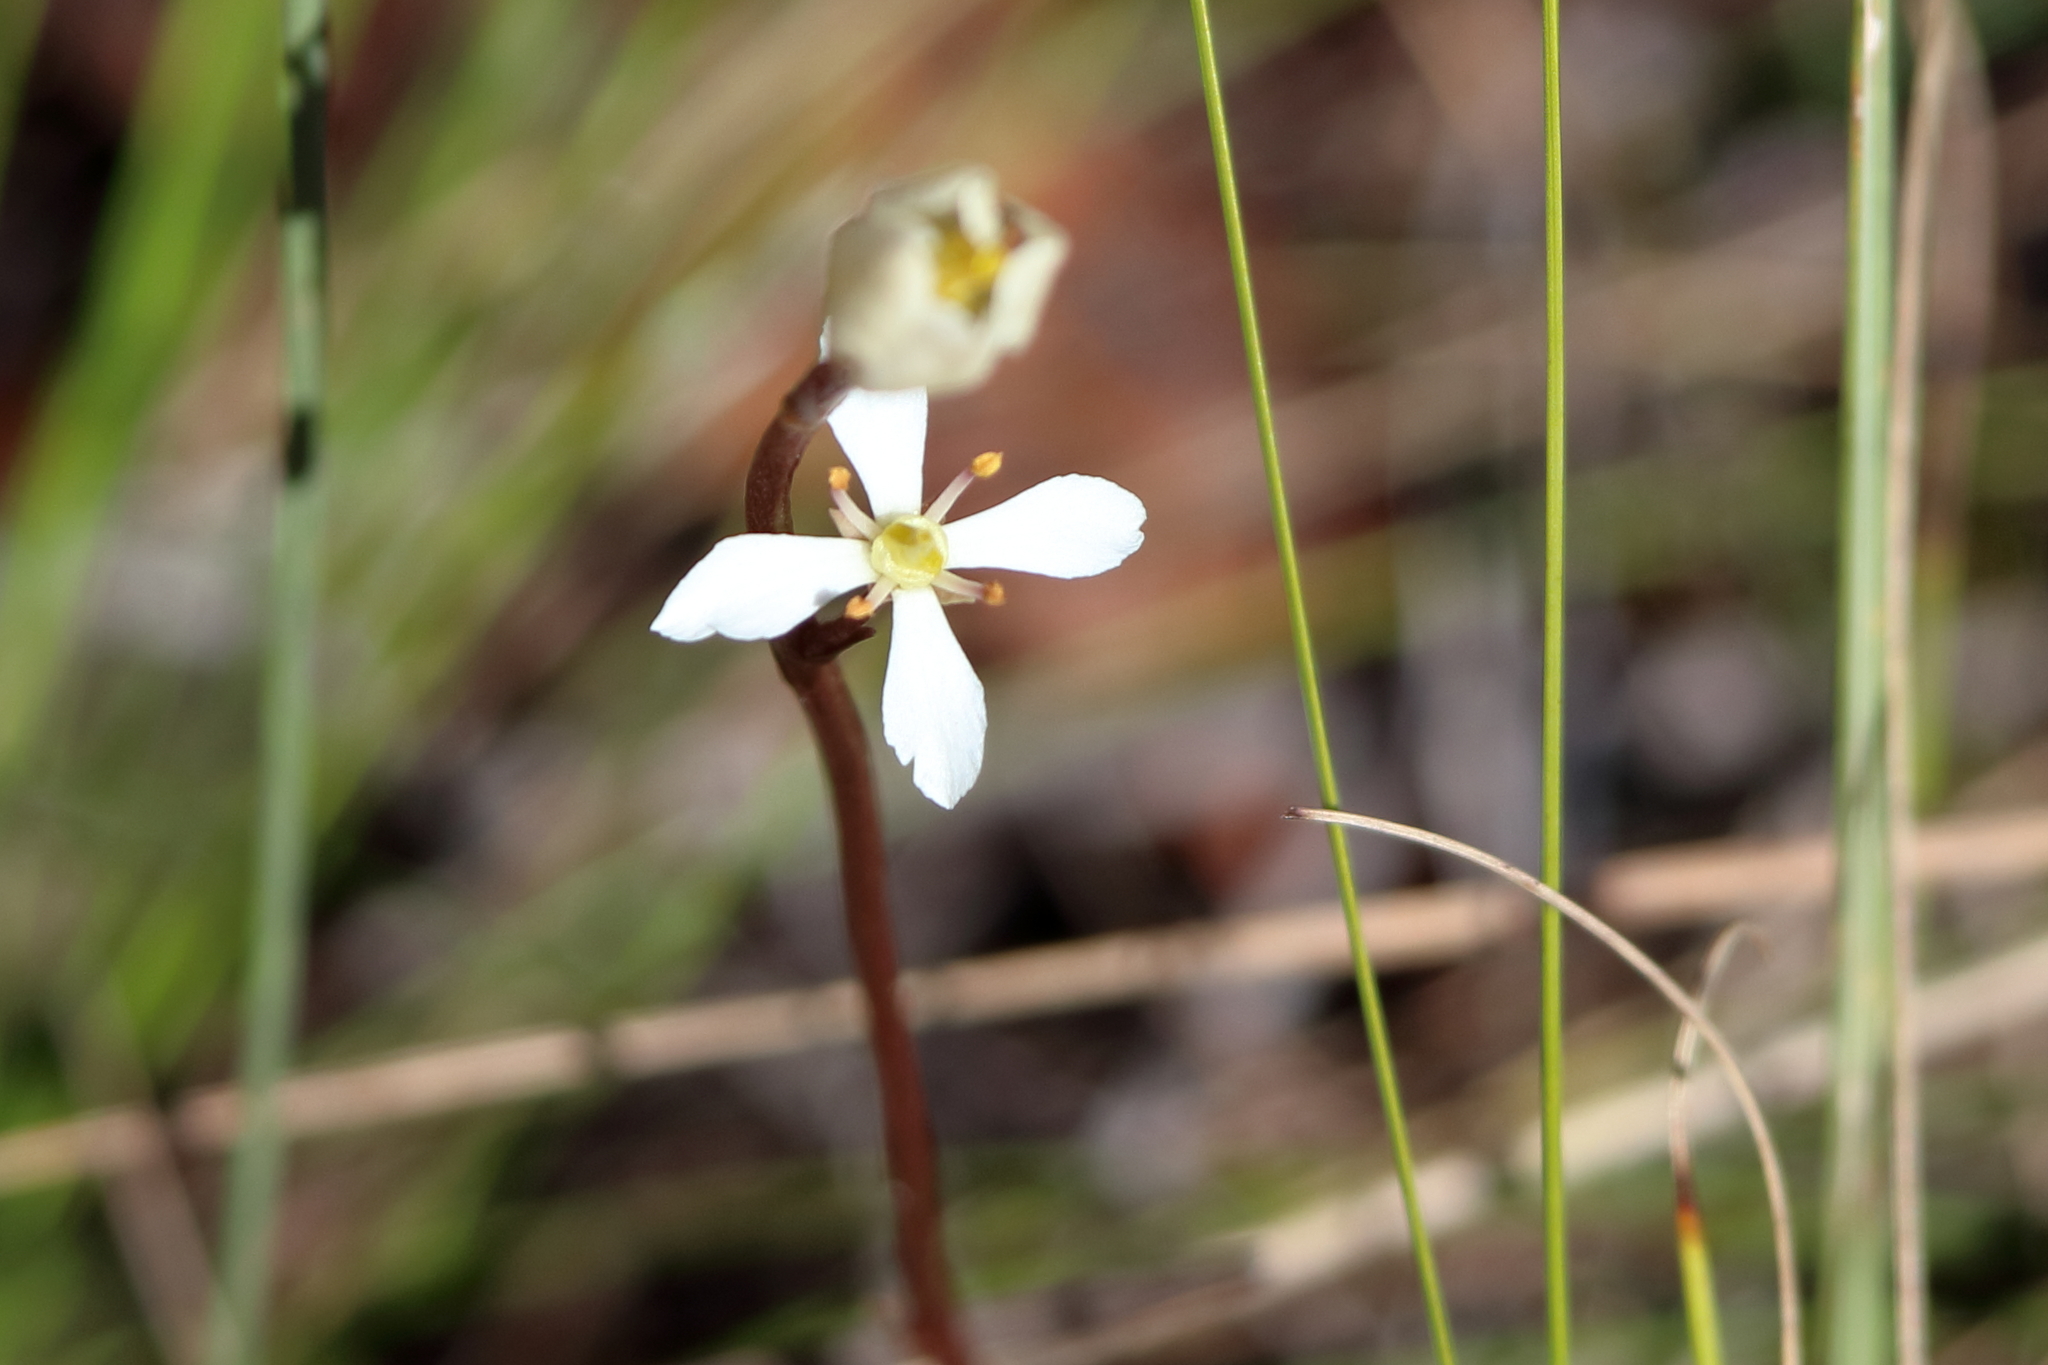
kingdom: Plantae
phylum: Tracheophyta
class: Magnoliopsida
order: Gentianales
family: Gentianaceae
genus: Bartonia
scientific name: Bartonia verna
